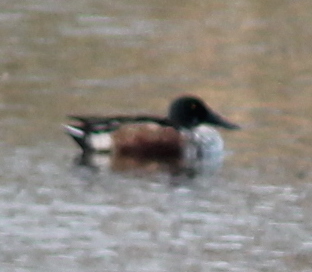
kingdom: Animalia
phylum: Chordata
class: Aves
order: Anseriformes
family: Anatidae
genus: Spatula
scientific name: Spatula clypeata
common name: Northern shoveler
